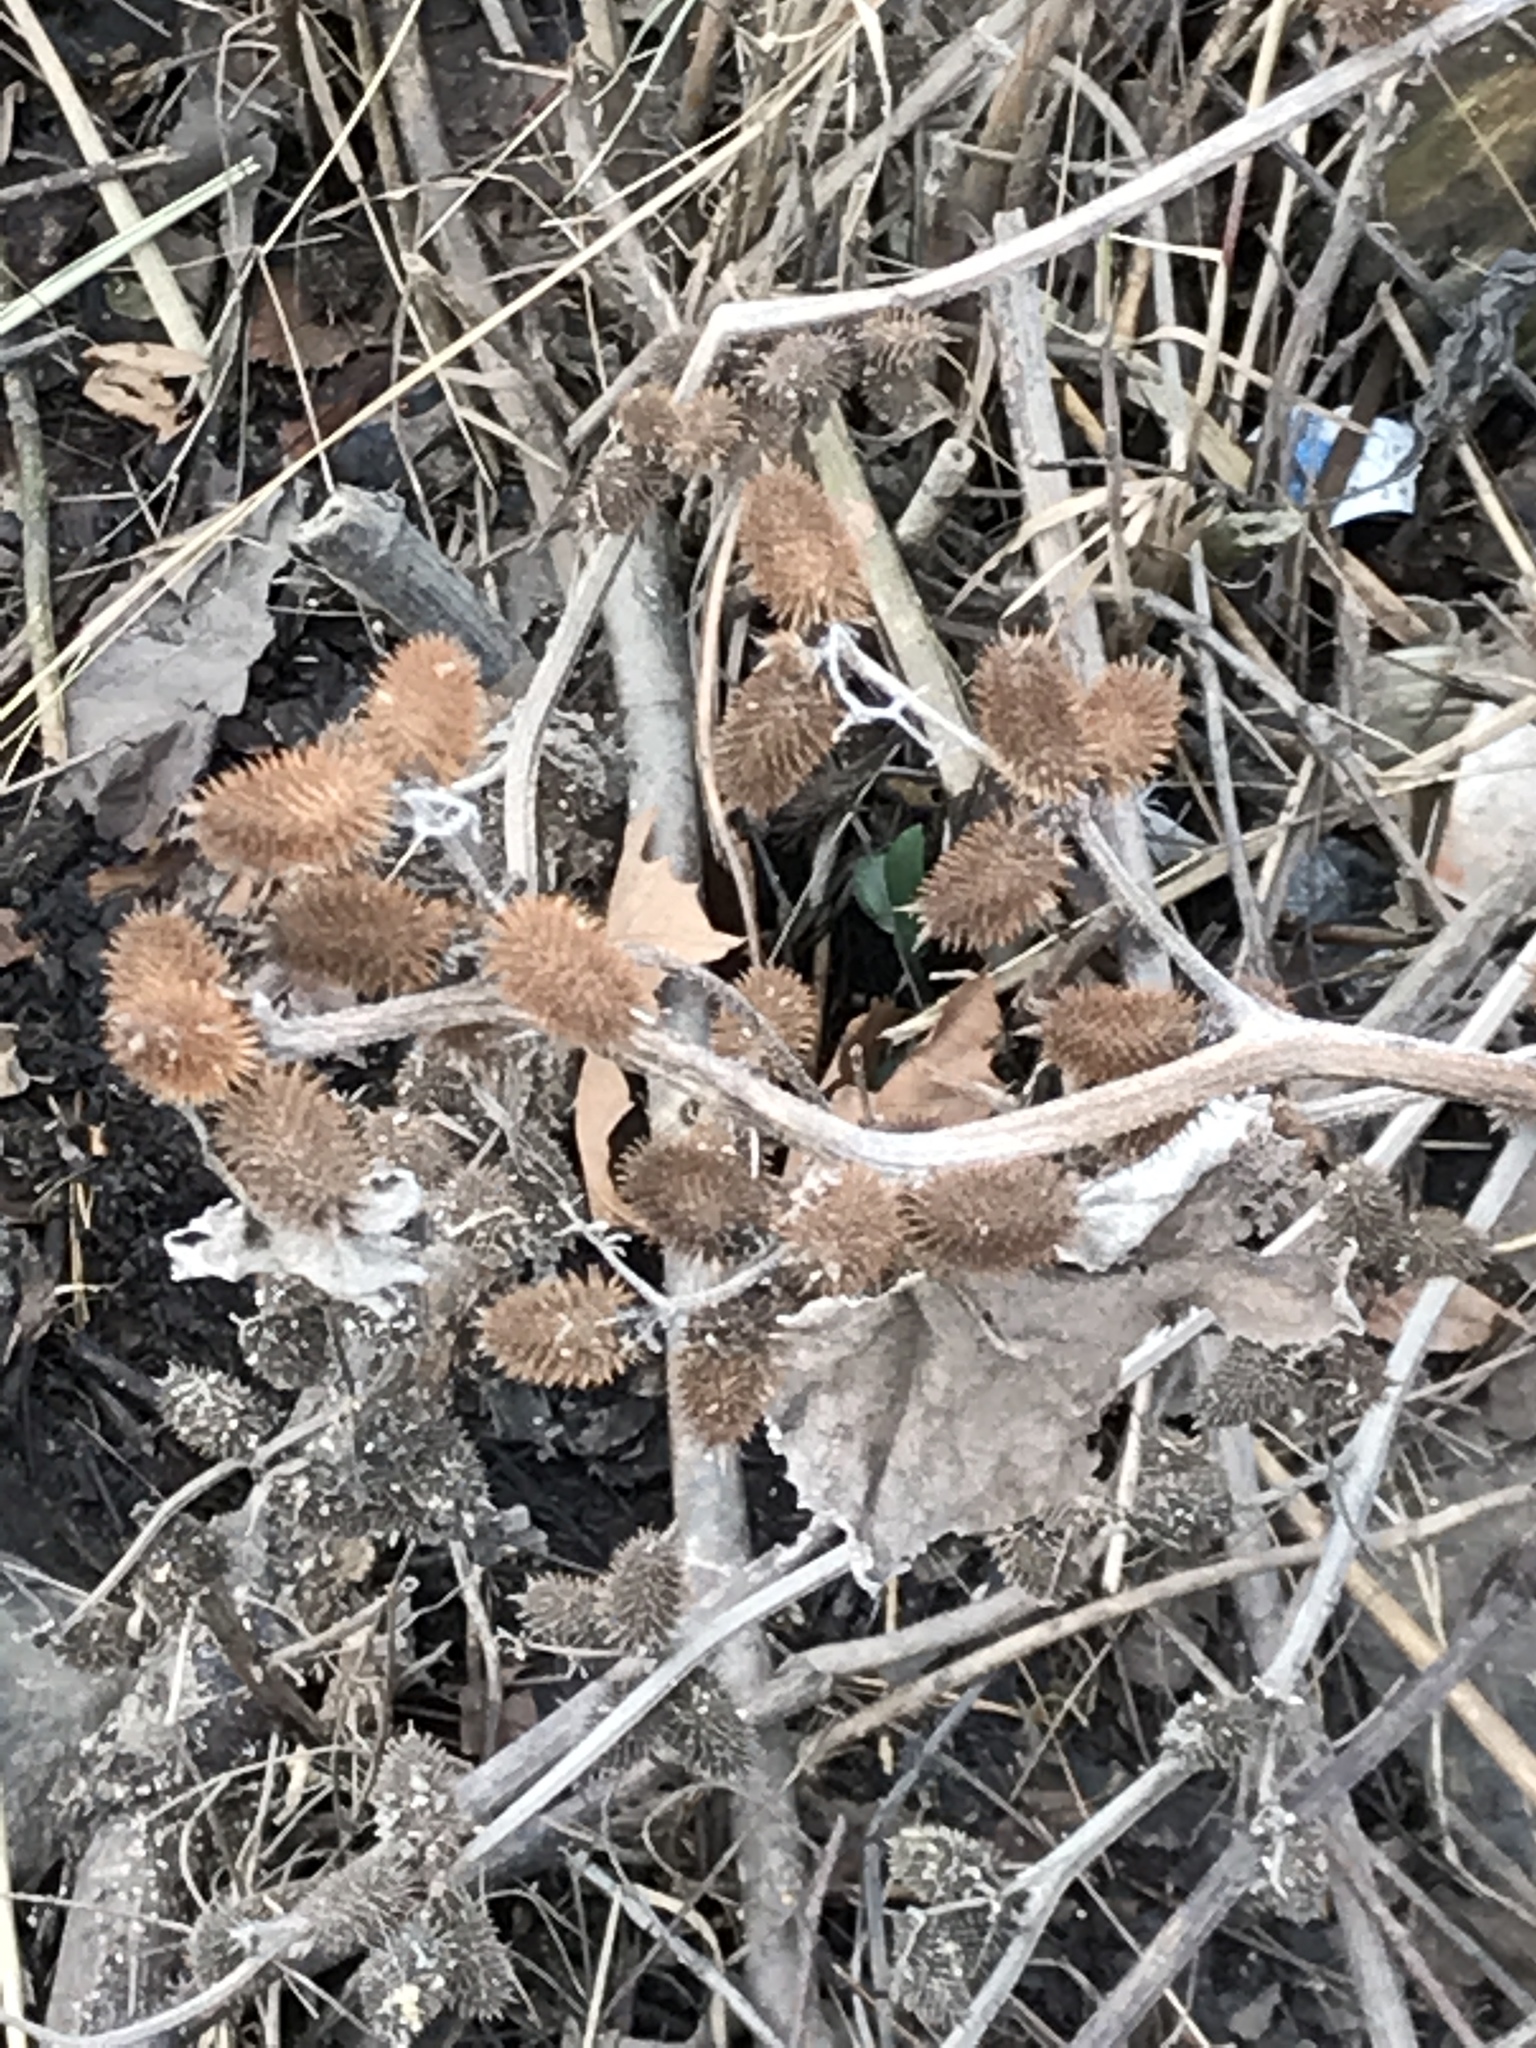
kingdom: Plantae
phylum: Tracheophyta
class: Magnoliopsida
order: Asterales
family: Asteraceae
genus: Xanthium
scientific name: Xanthium strumarium
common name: Rough cocklebur
